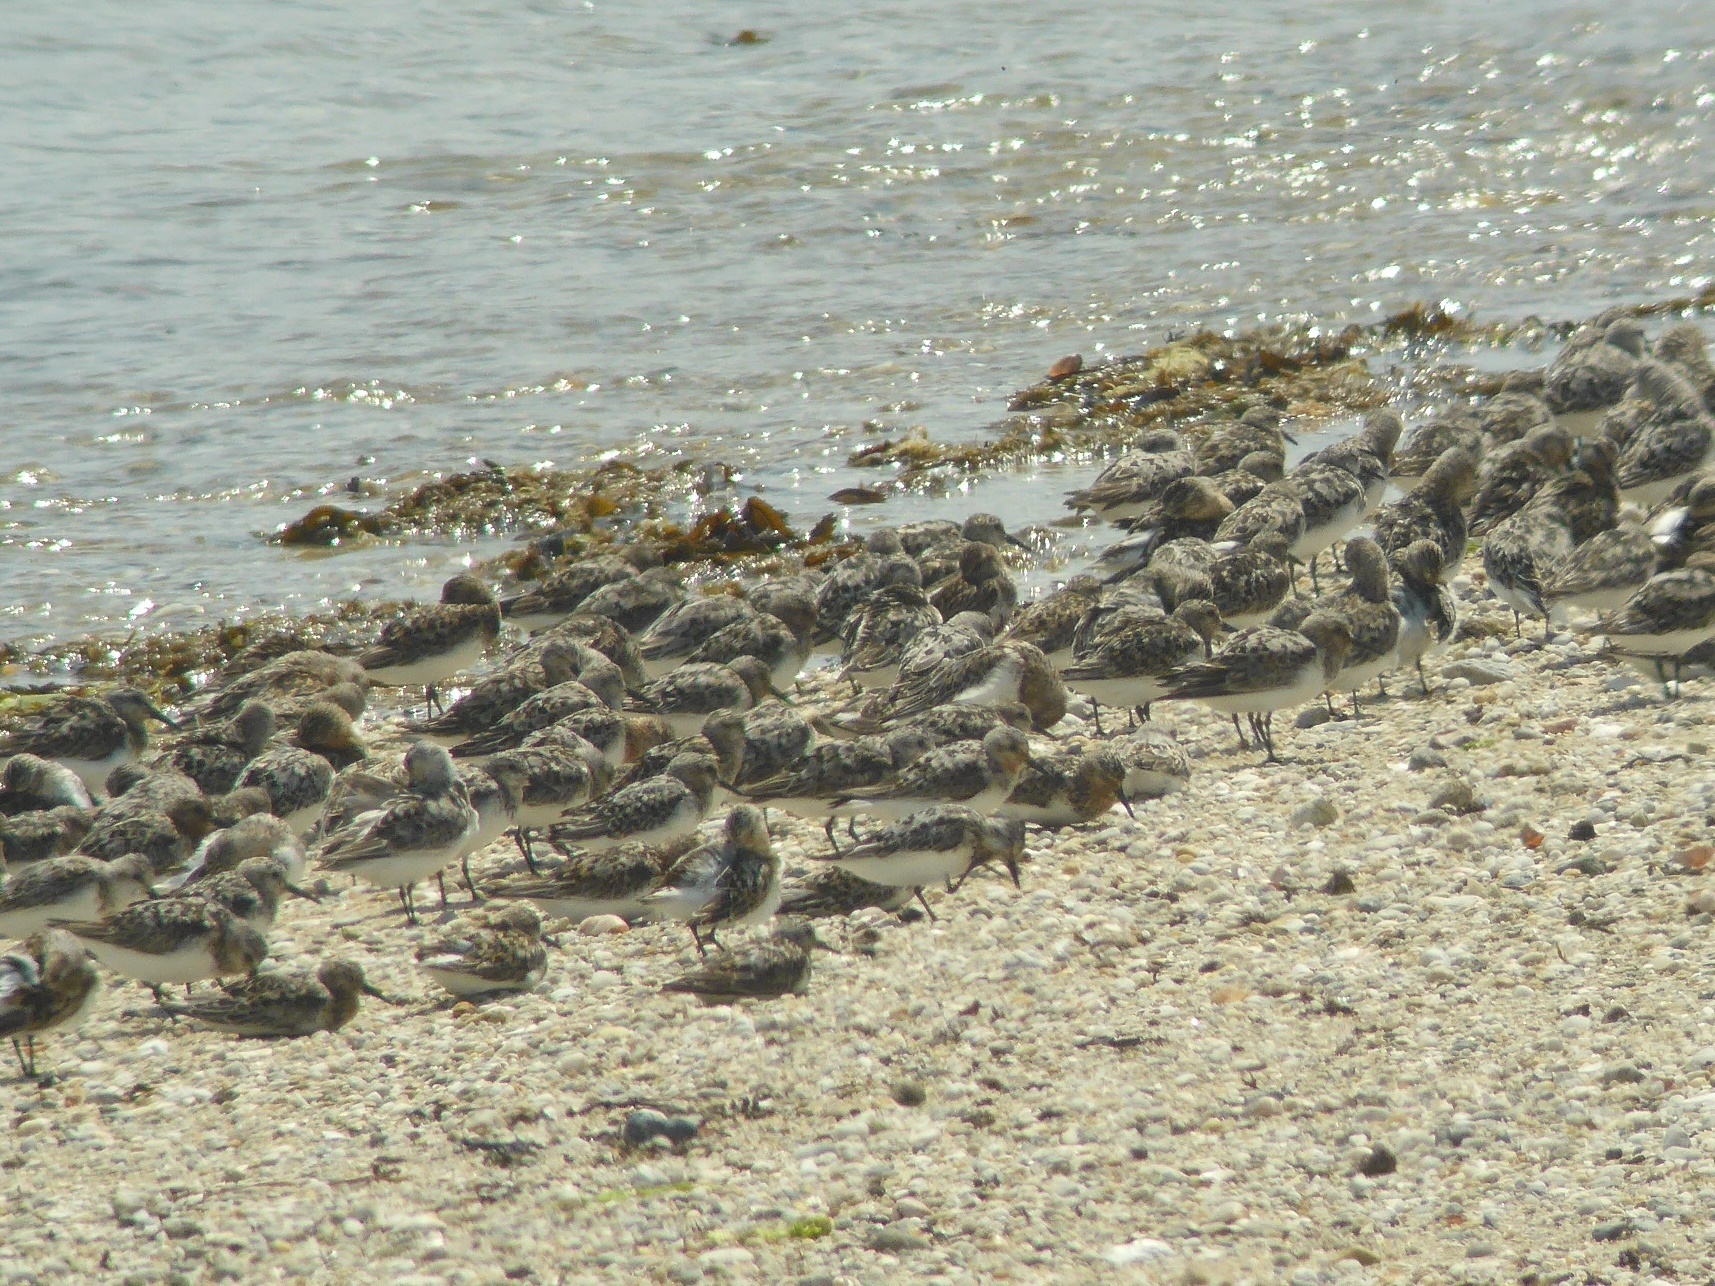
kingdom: Animalia
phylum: Chordata
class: Aves
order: Charadriiformes
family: Scolopacidae
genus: Calidris
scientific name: Calidris alba
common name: Sanderling
